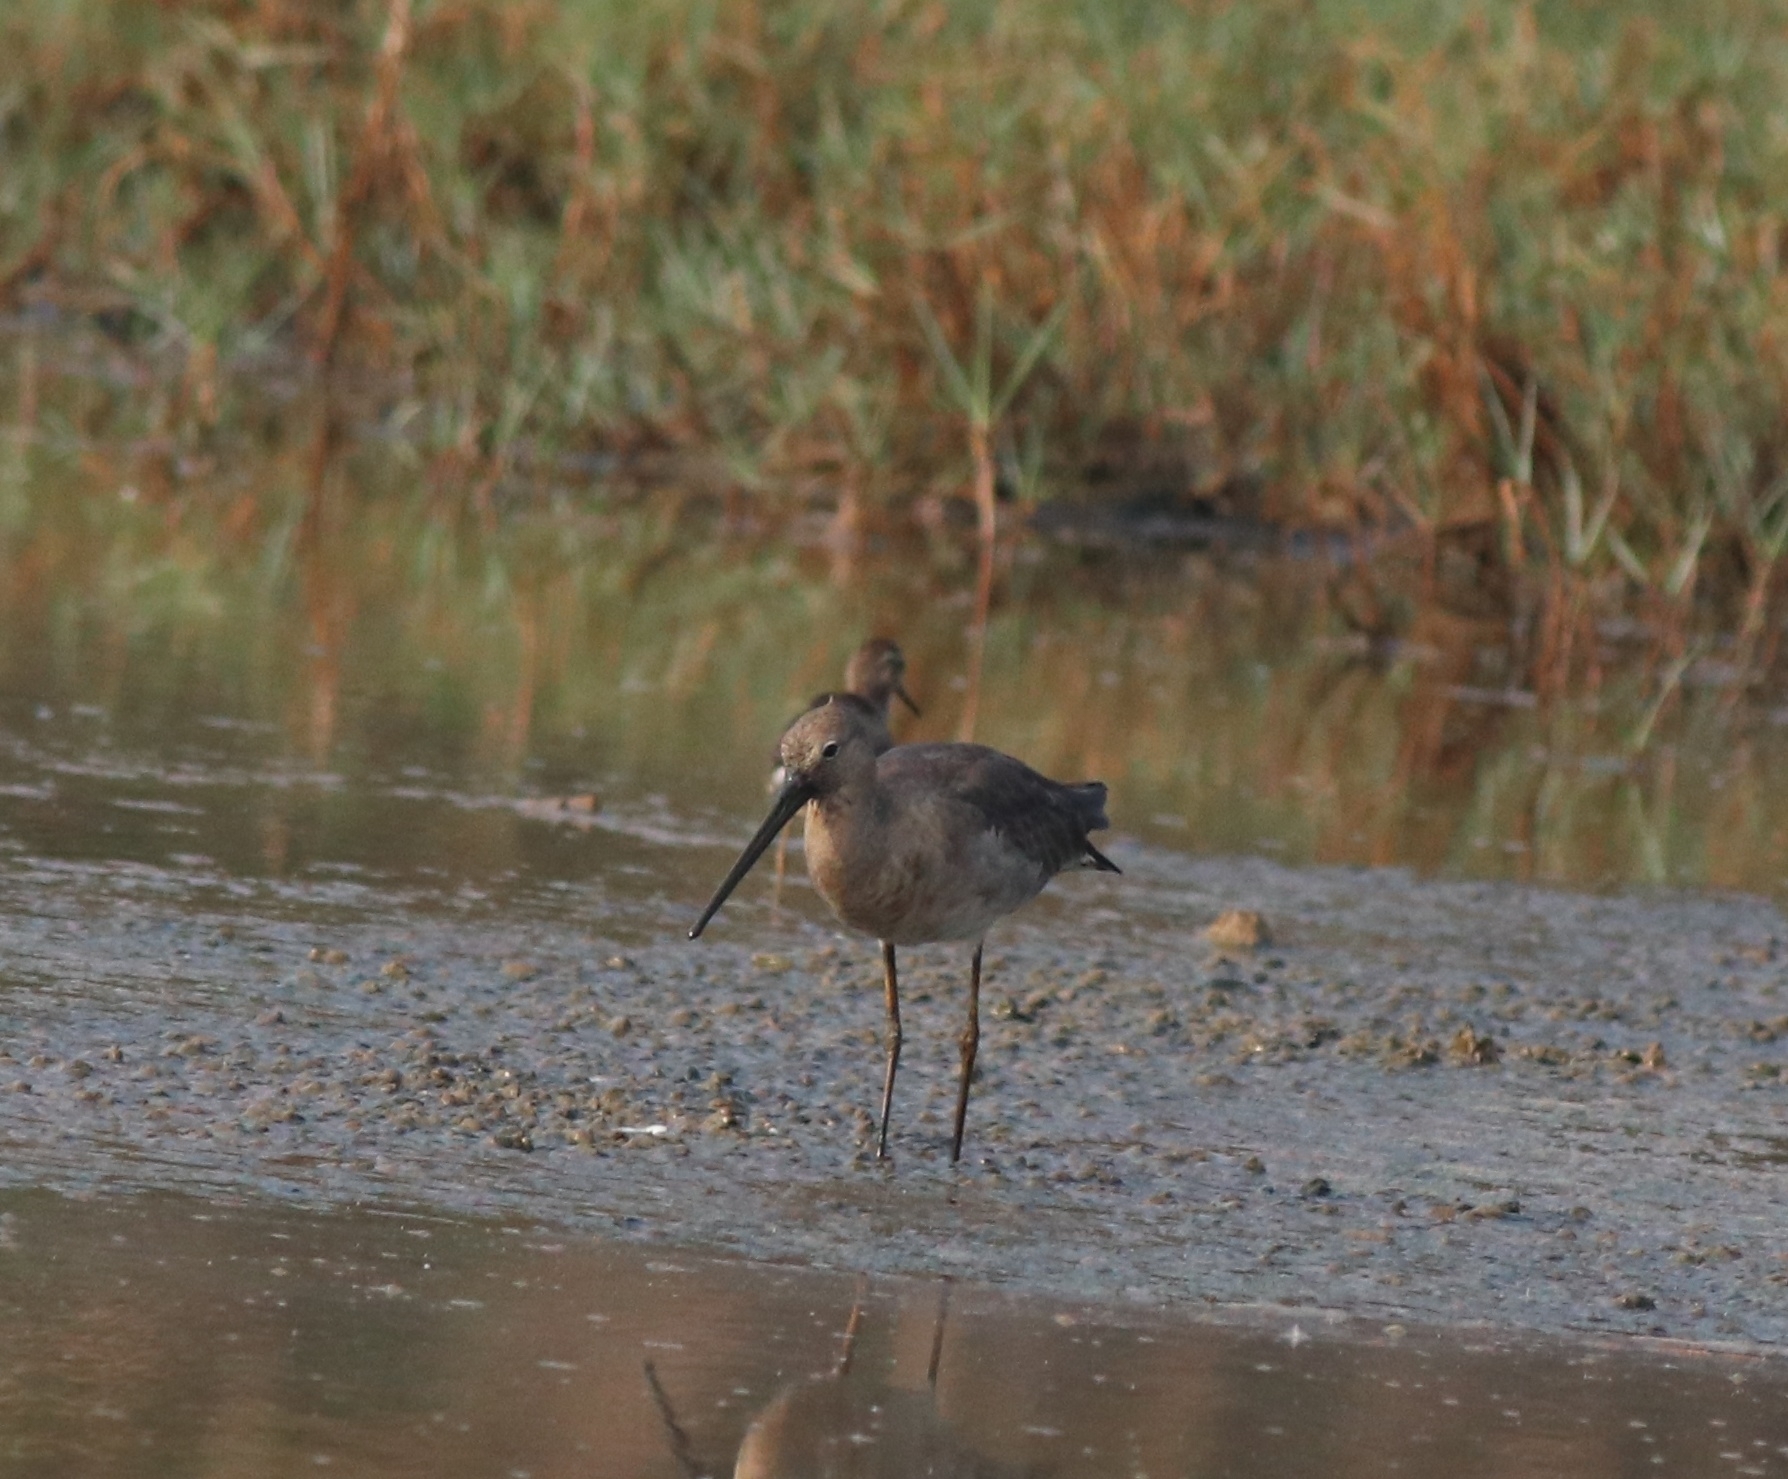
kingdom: Animalia
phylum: Chordata
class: Aves
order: Charadriiformes
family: Scolopacidae
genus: Limosa
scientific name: Limosa limosa
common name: Black-tailed godwit
